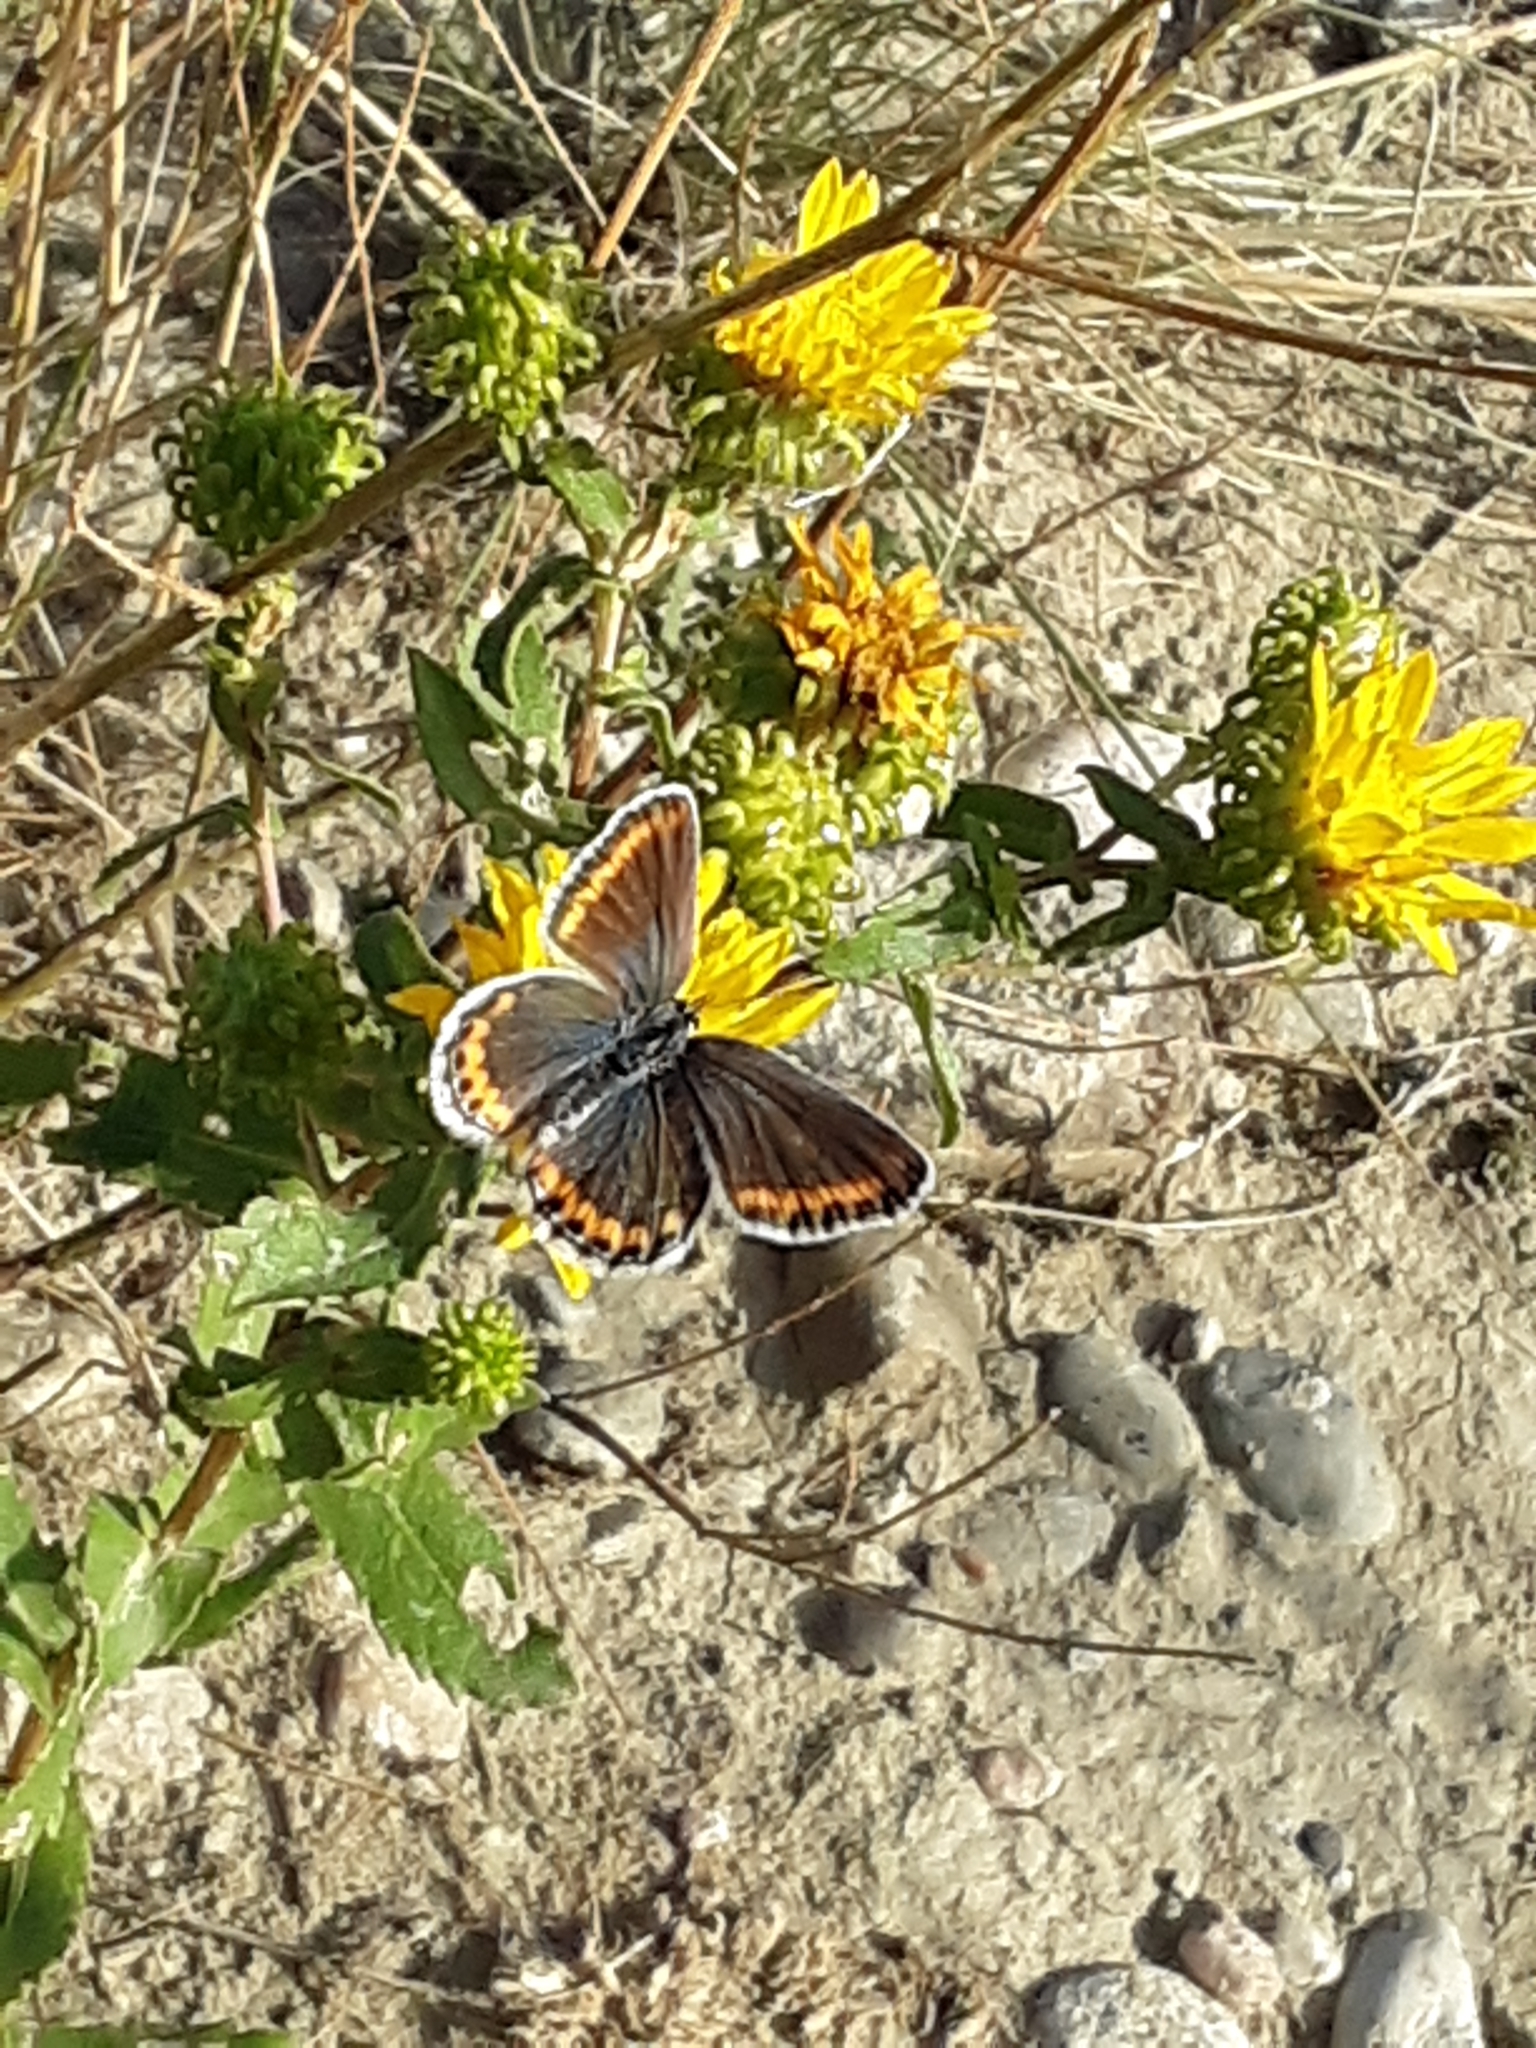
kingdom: Animalia
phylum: Arthropoda
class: Insecta
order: Lepidoptera
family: Lycaenidae
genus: Lycaeides
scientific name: Lycaeides melissa
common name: Melissa blue
